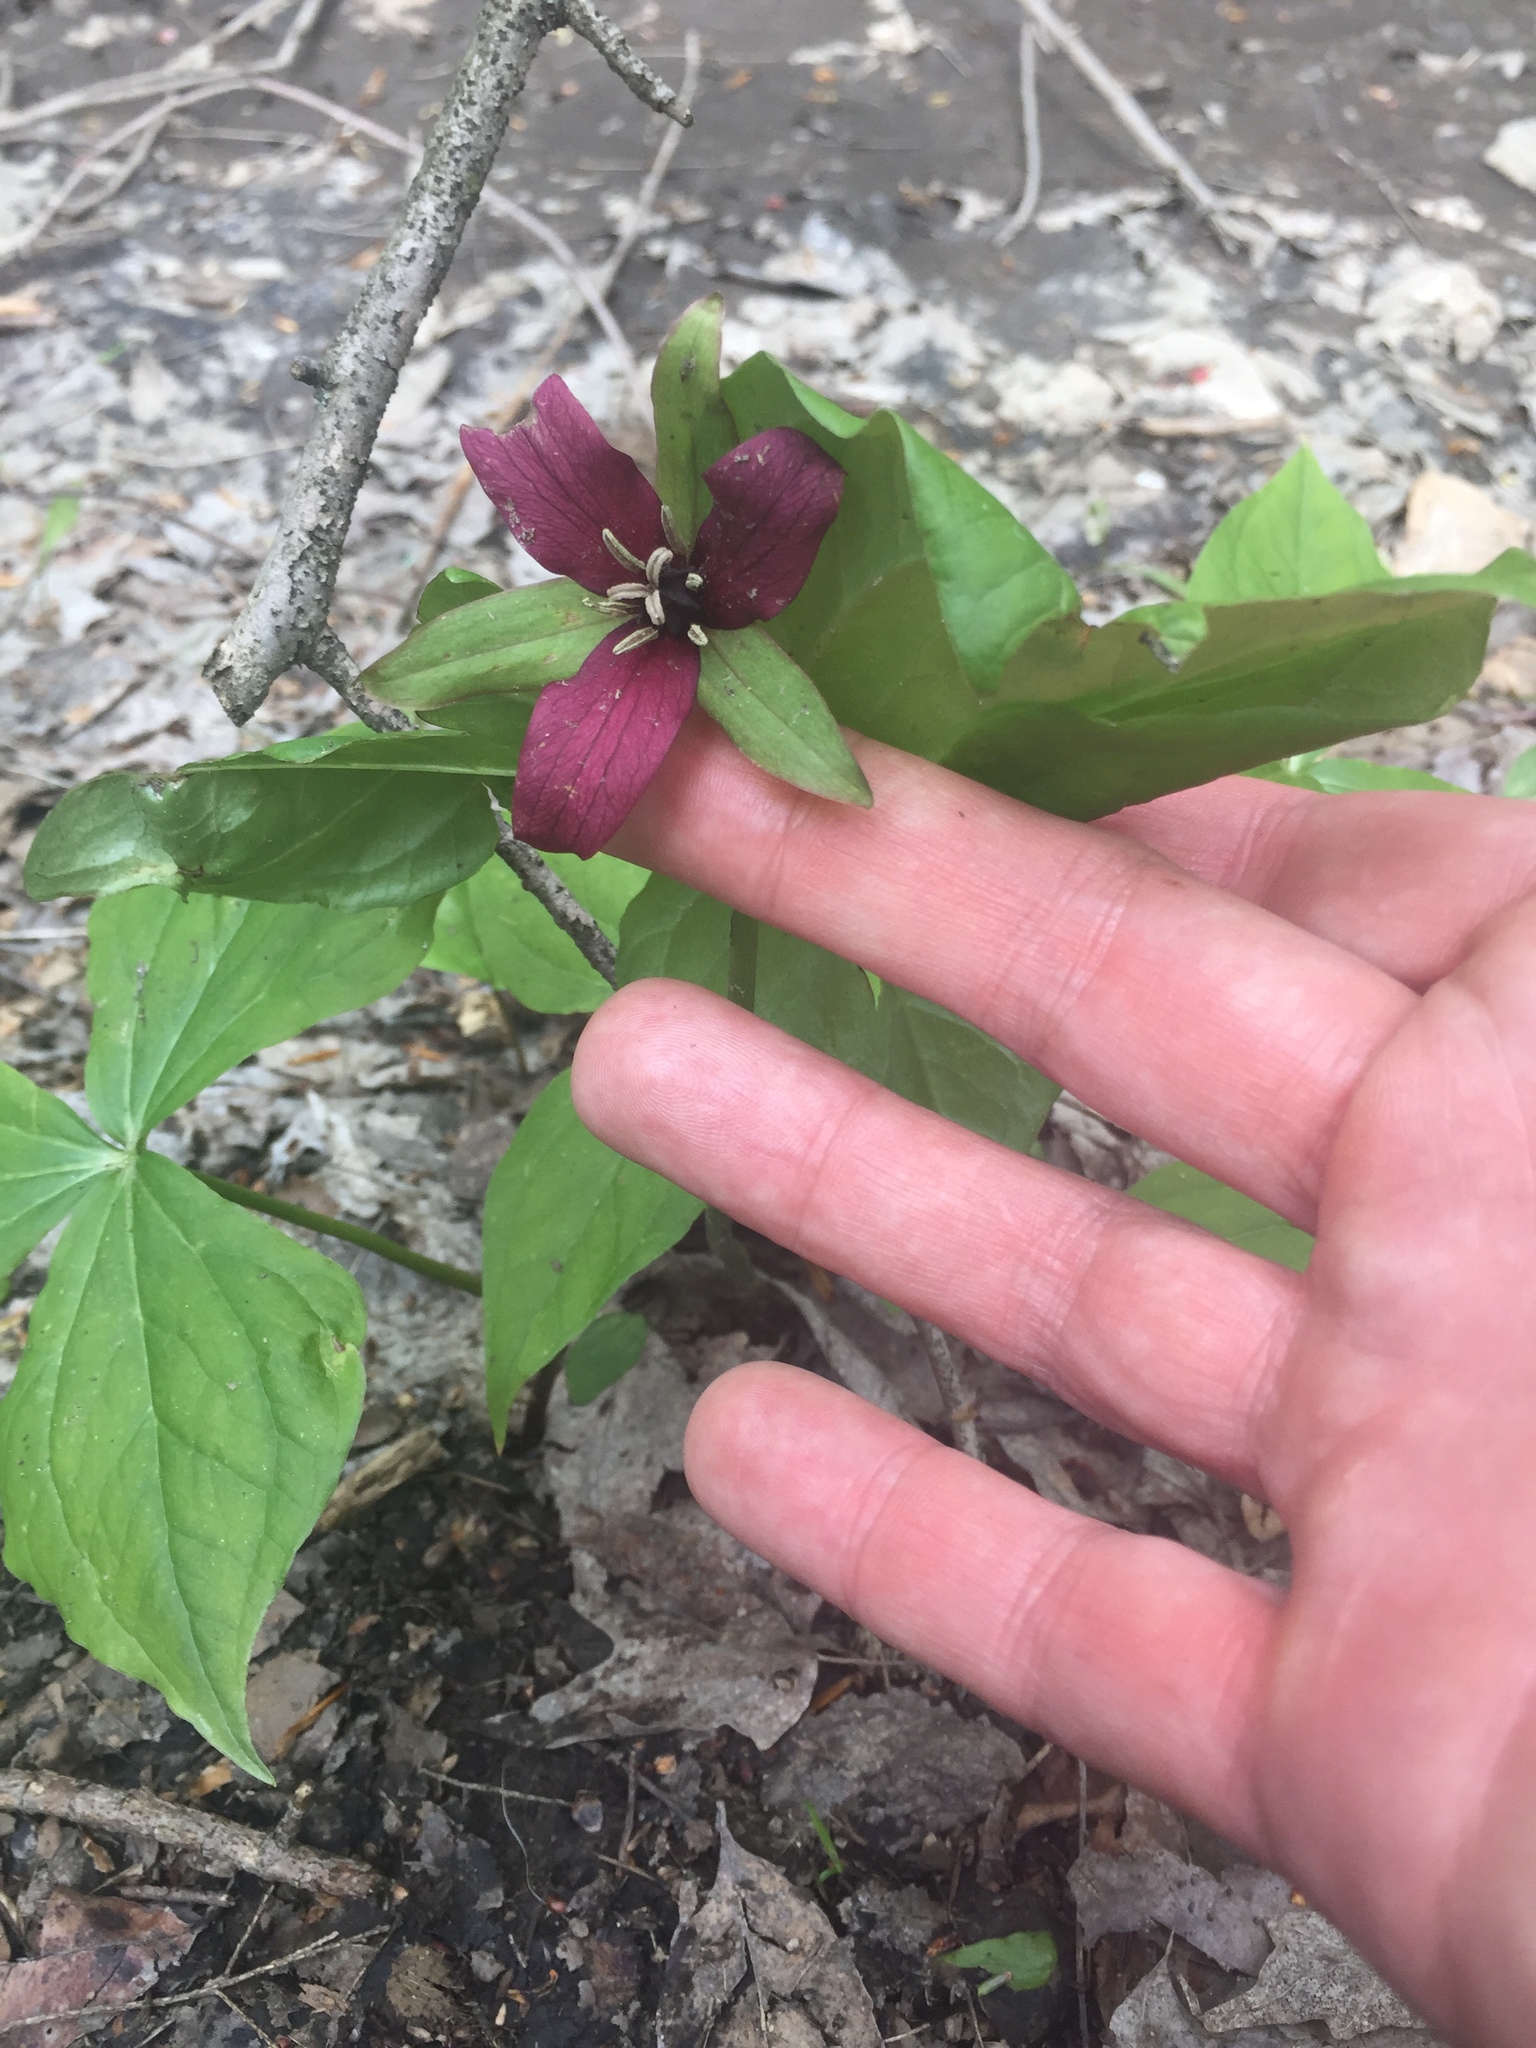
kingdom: Plantae
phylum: Tracheophyta
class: Liliopsida
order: Liliales
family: Melanthiaceae
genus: Trillium
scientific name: Trillium erectum
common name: Purple trillium
